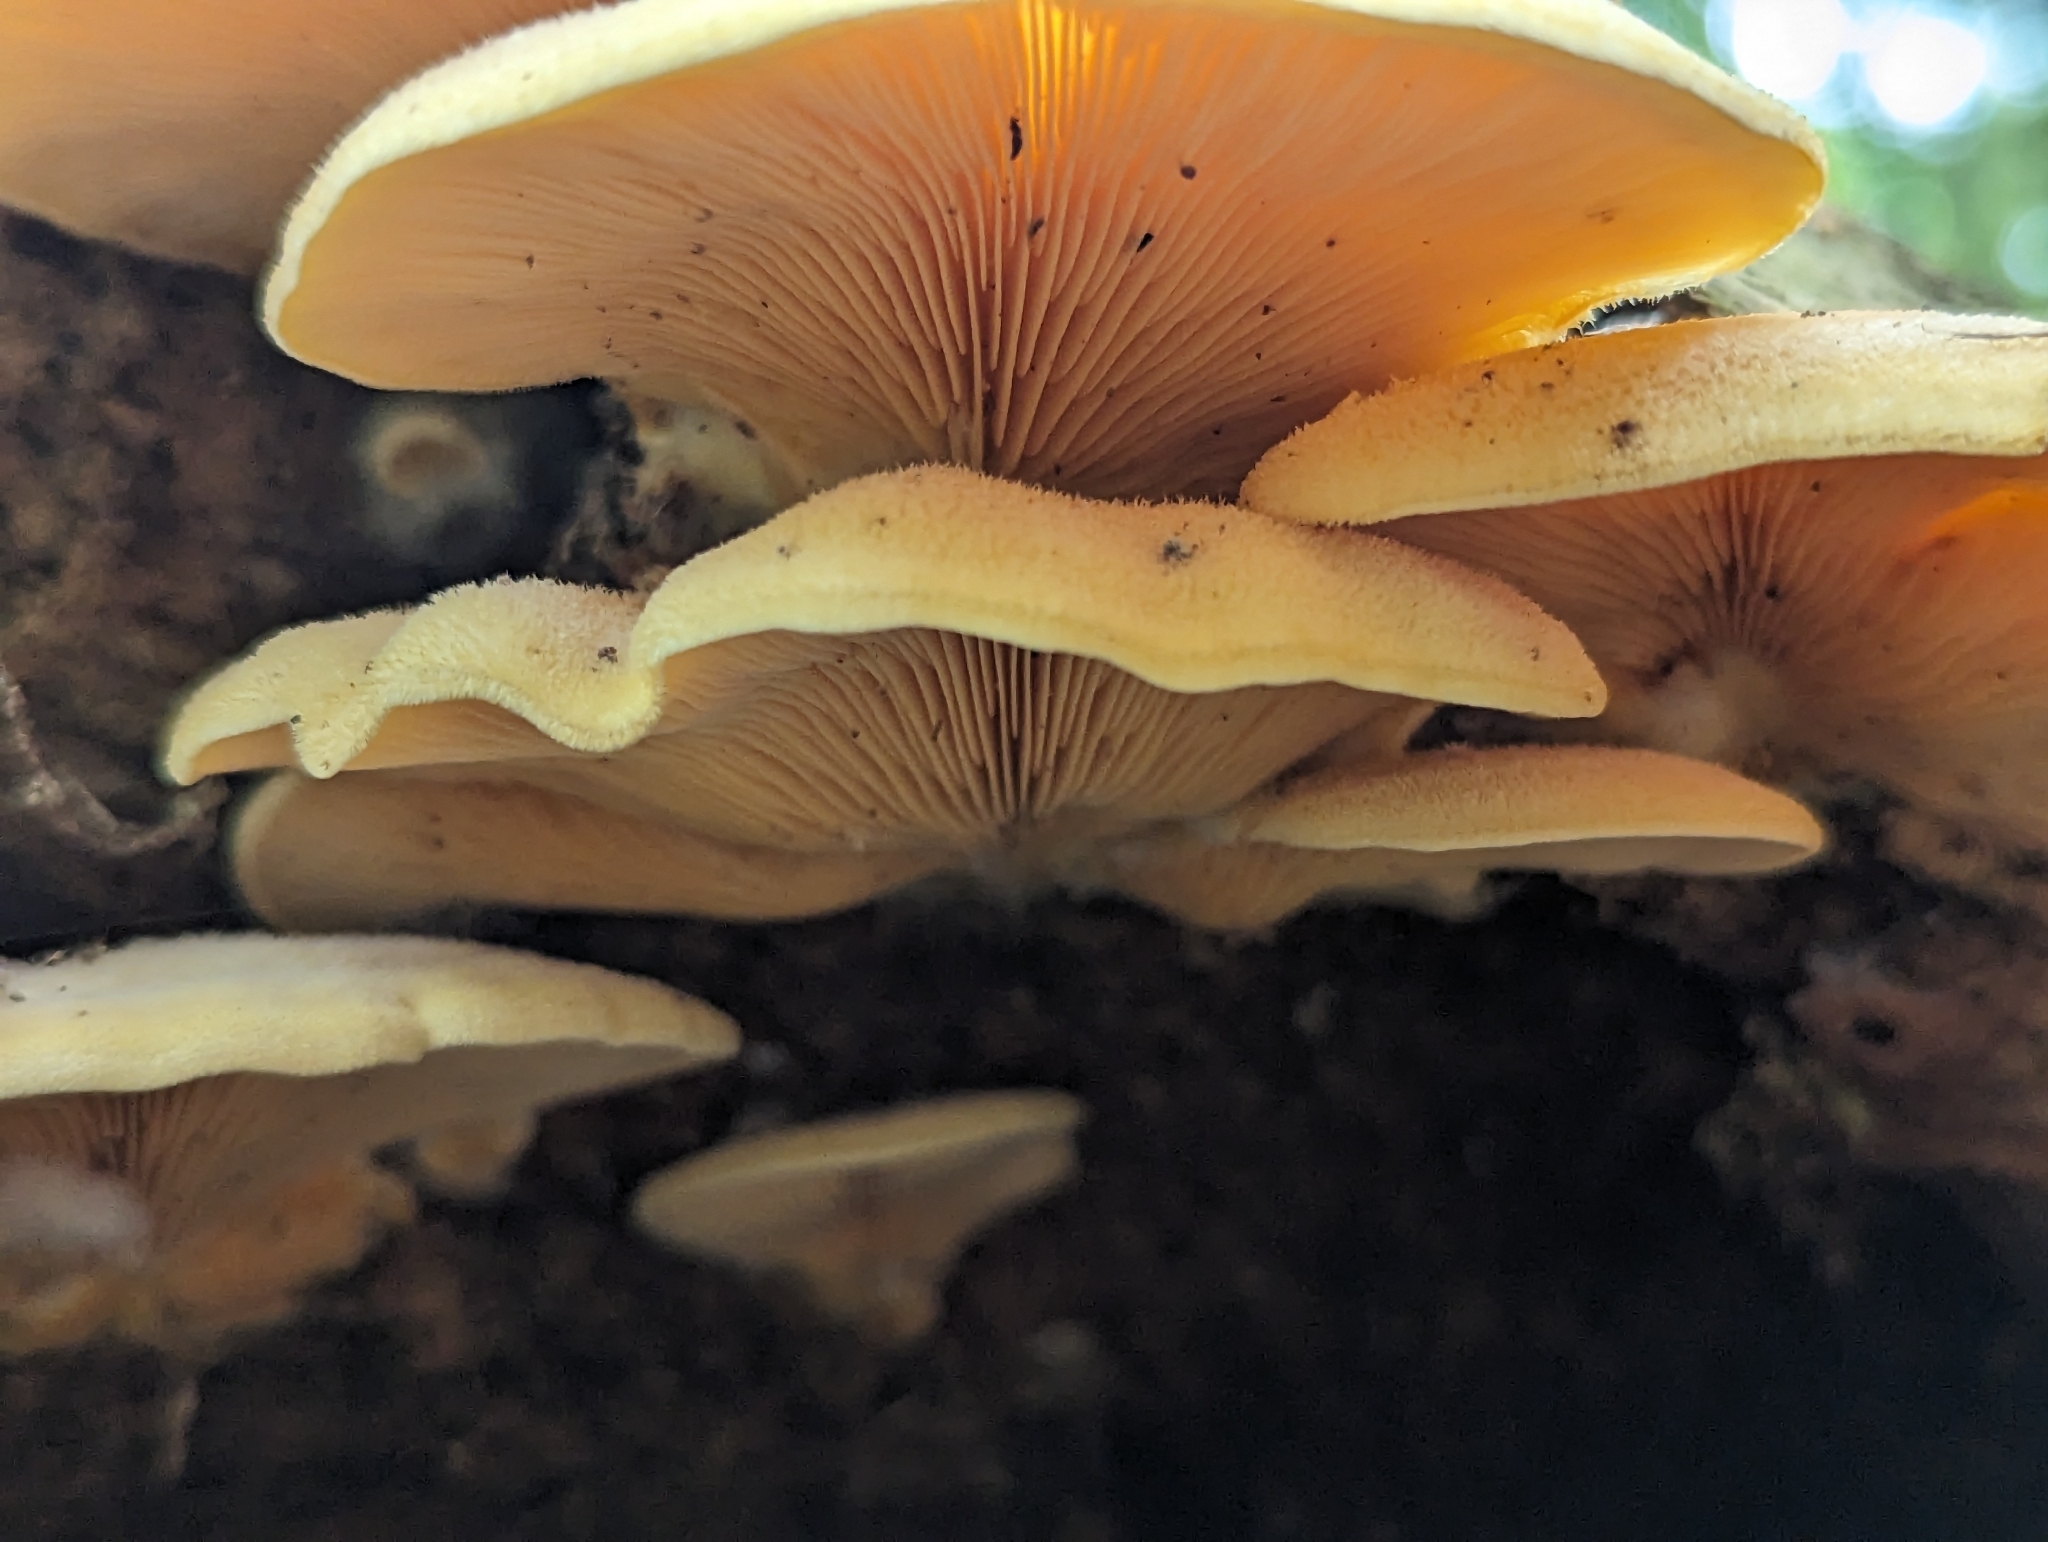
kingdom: Fungi
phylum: Basidiomycota
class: Agaricomycetes
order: Agaricales
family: Phyllotopsidaceae
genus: Phyllotopsis
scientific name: Phyllotopsis nidulans
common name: Orange mock oyster
